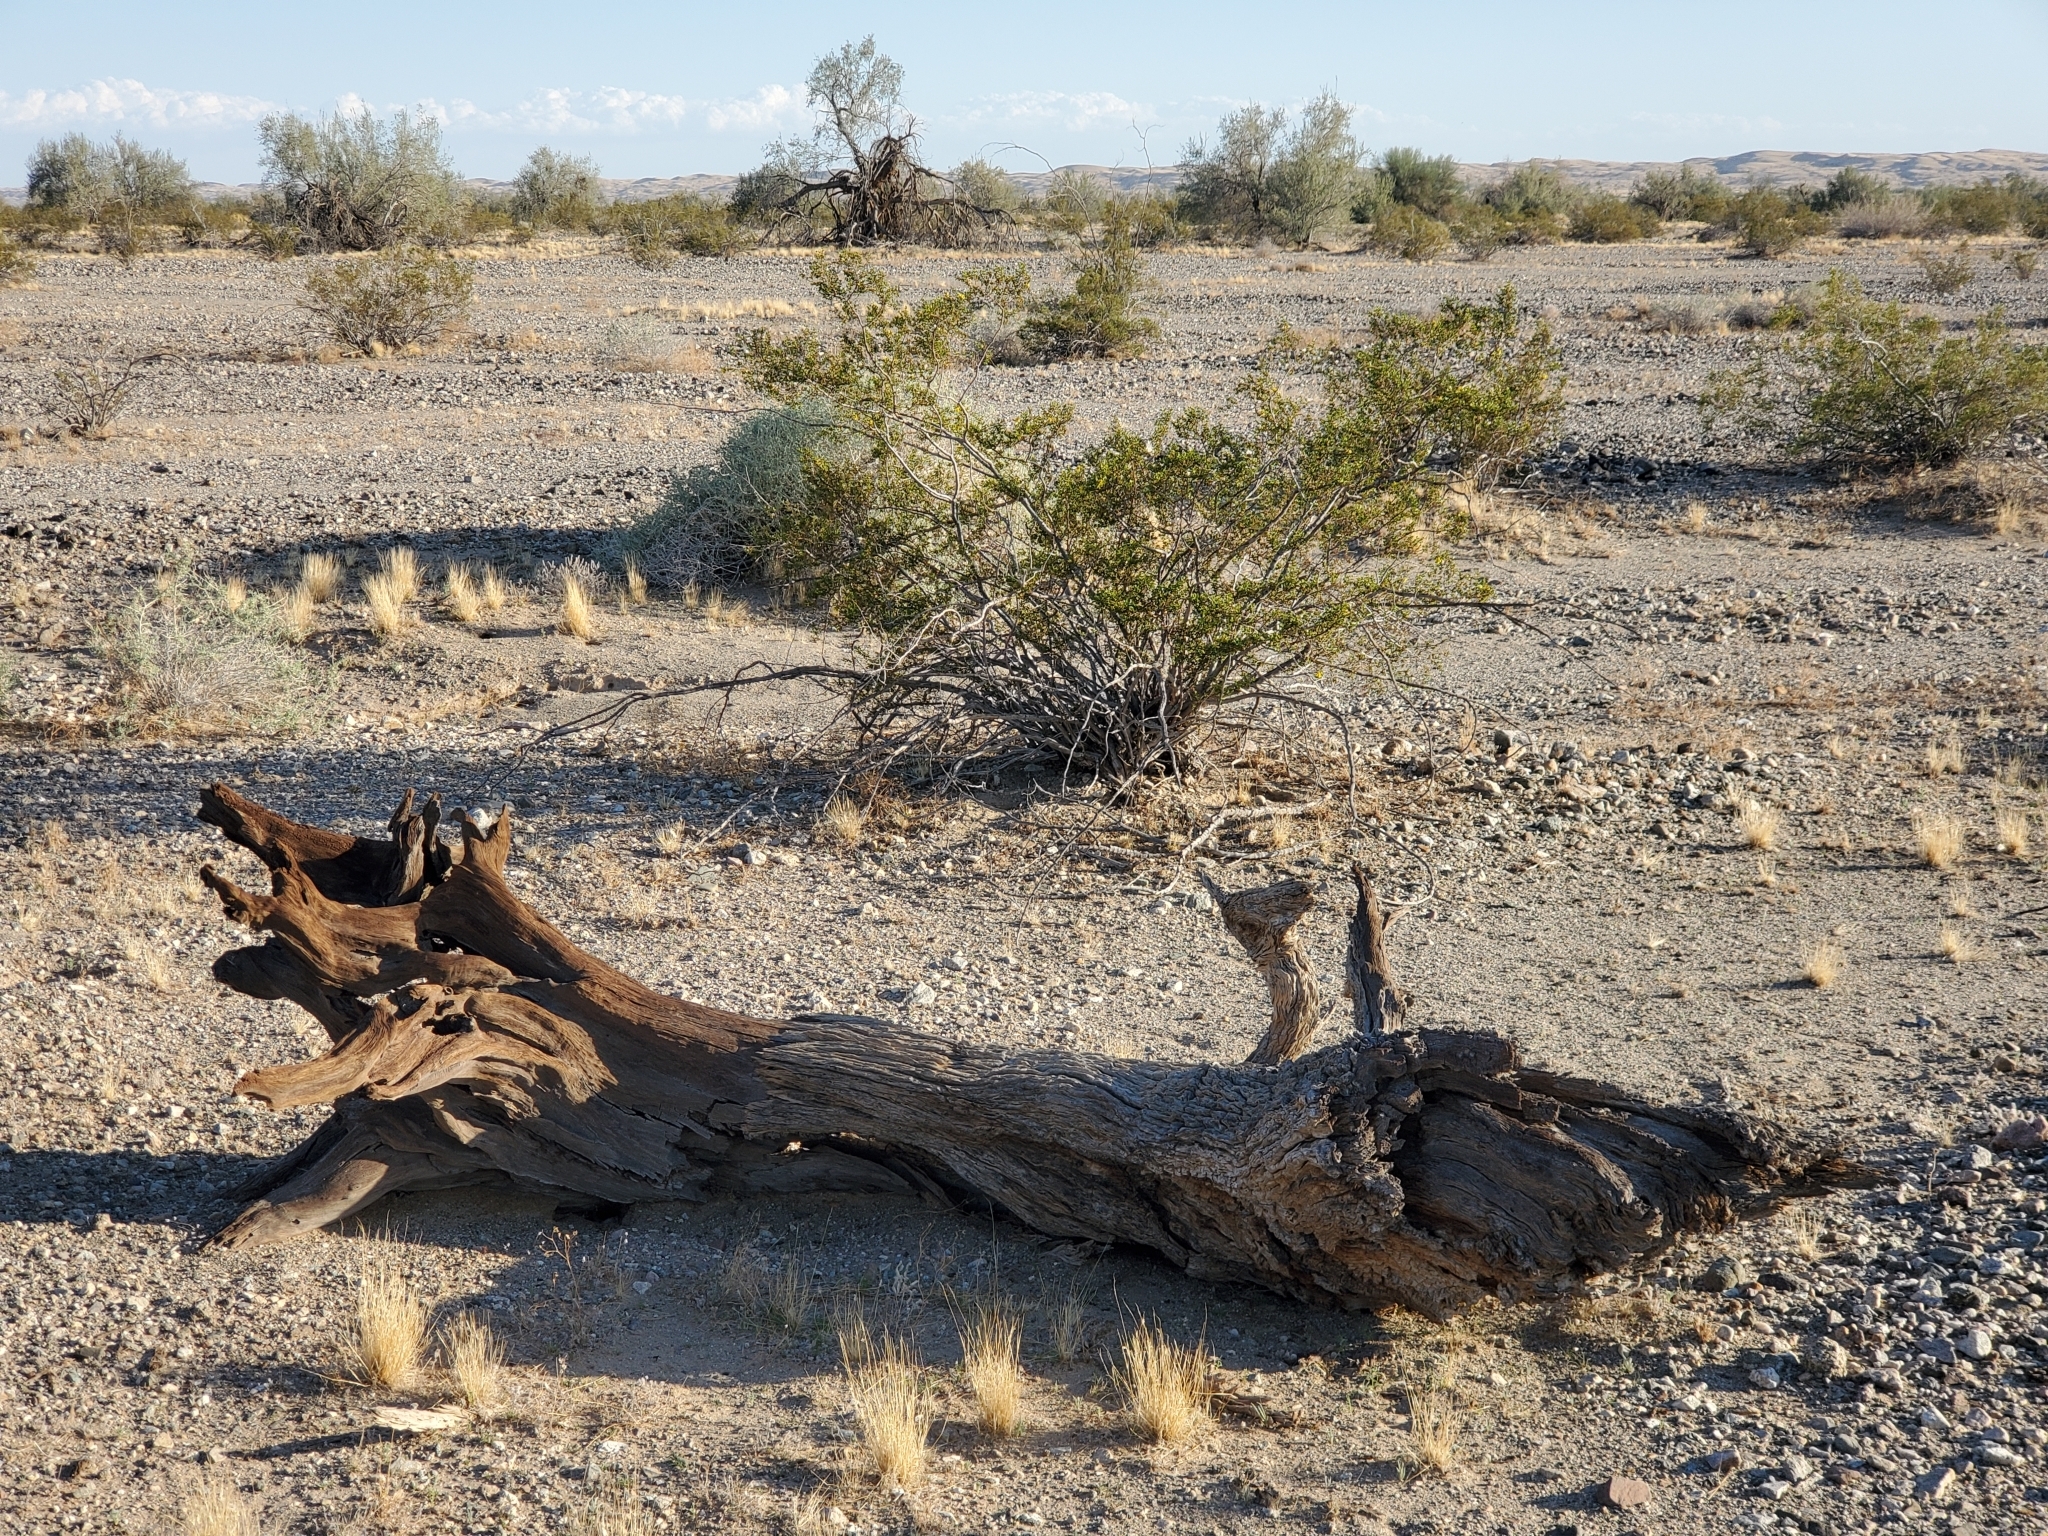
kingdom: Plantae
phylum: Tracheophyta
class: Magnoliopsida
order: Fabales
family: Fabaceae
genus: Olneya
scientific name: Olneya tesota
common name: Desert ironwood
